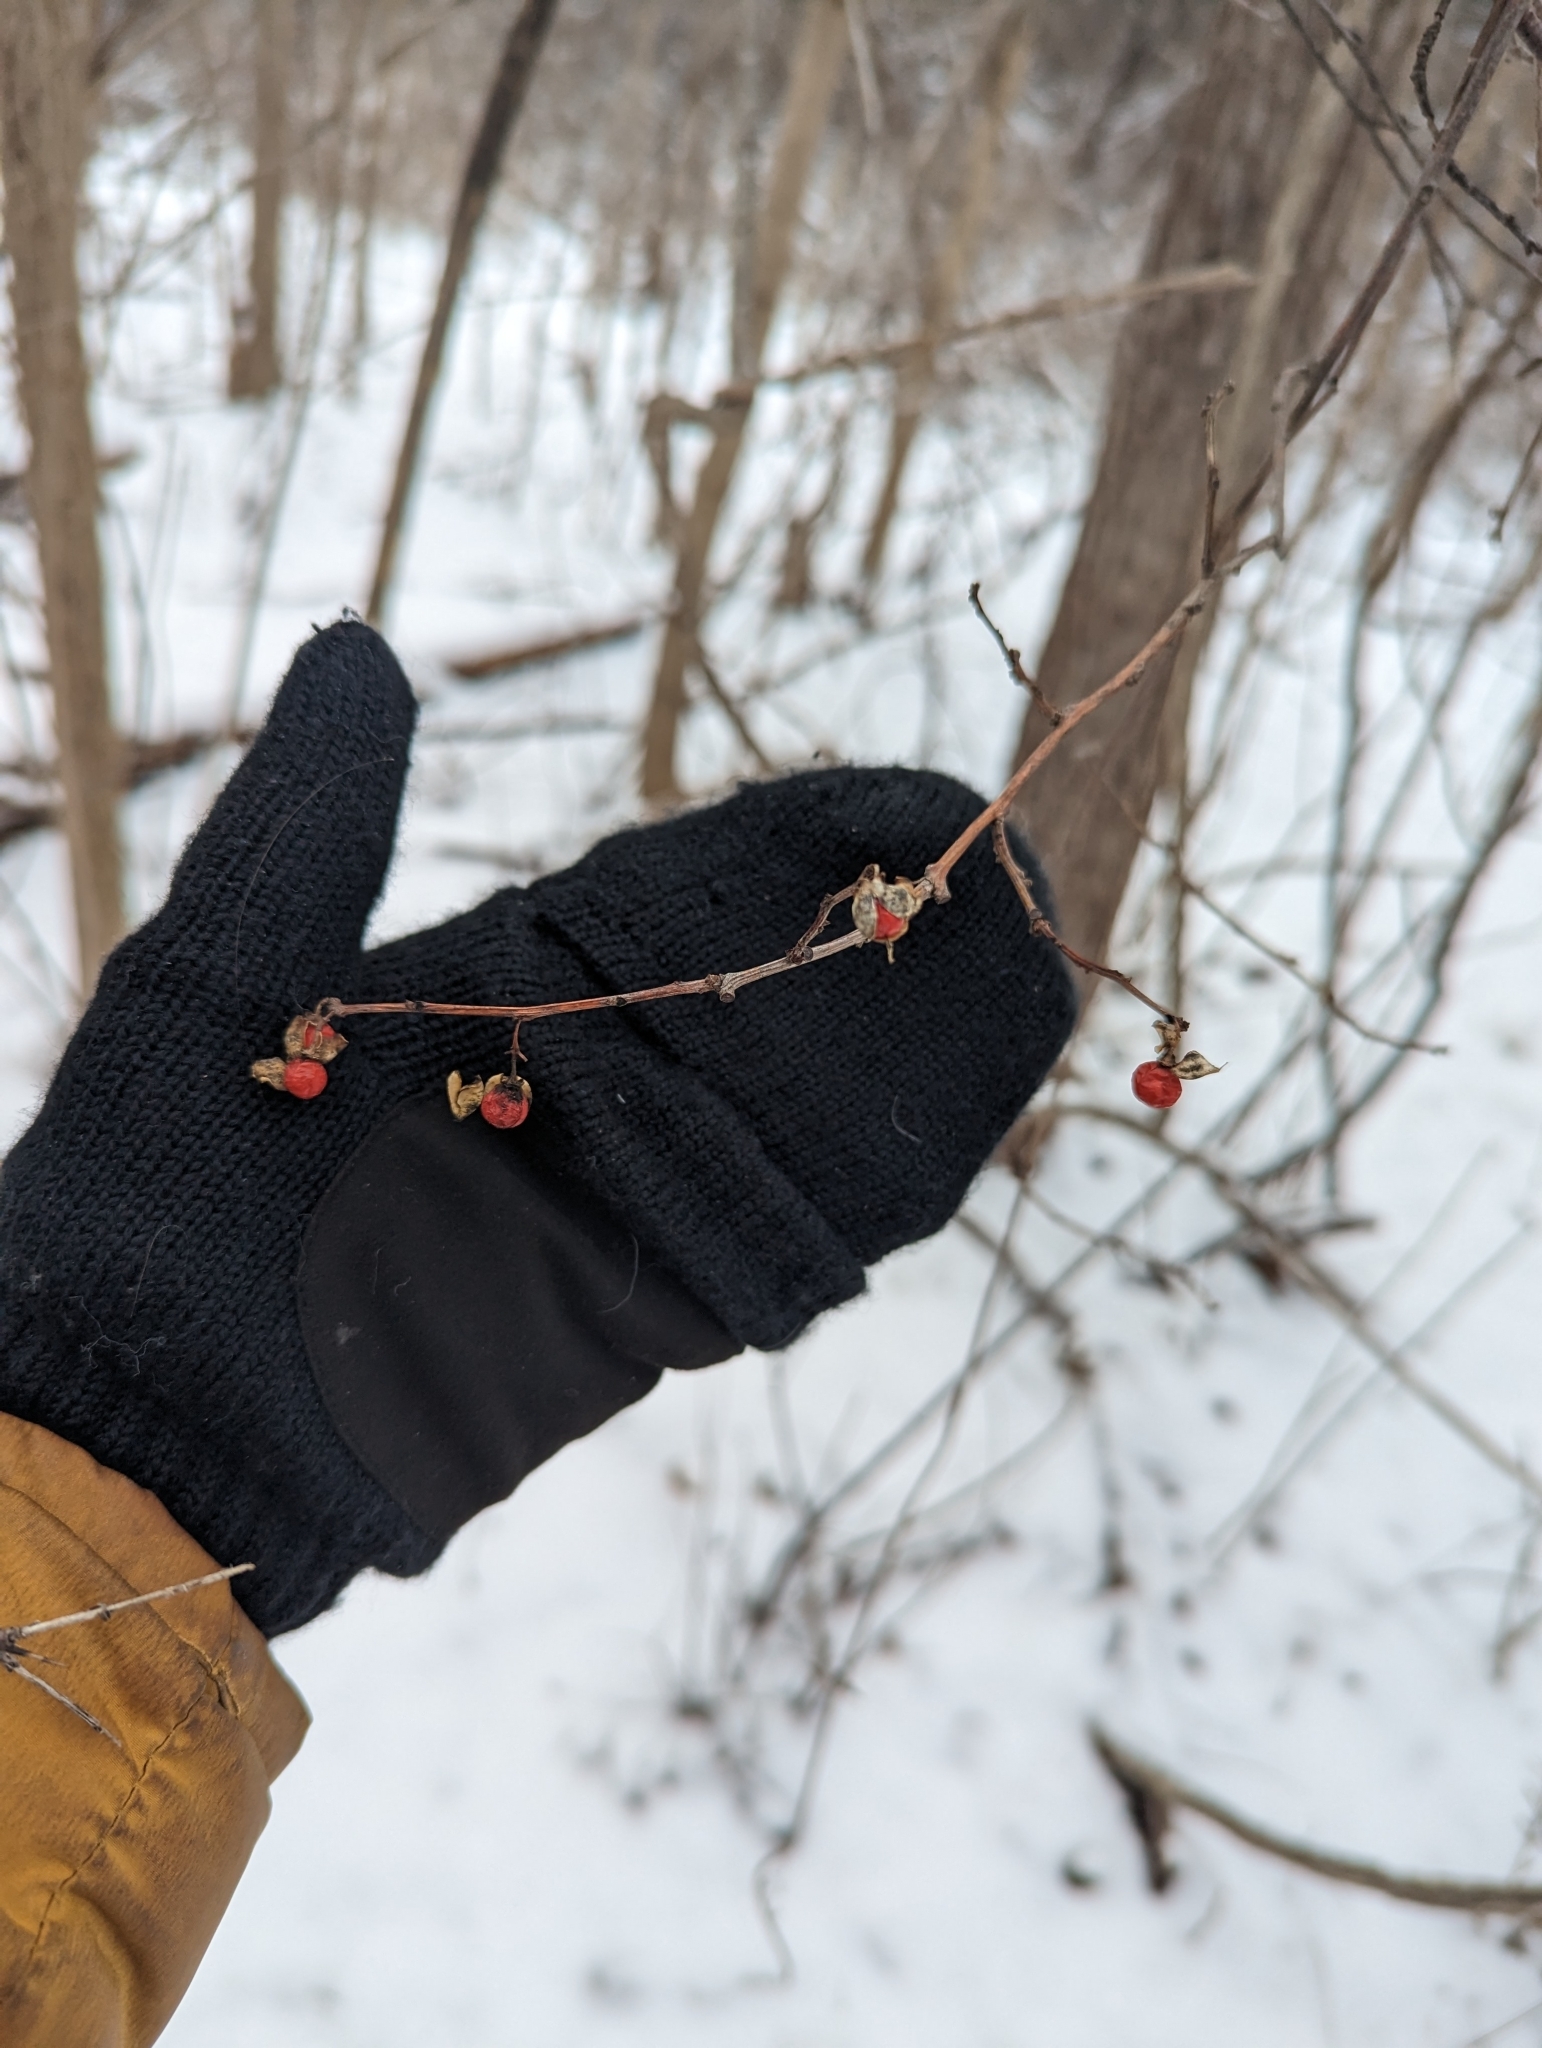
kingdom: Plantae
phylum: Tracheophyta
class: Magnoliopsida
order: Celastrales
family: Celastraceae
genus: Celastrus
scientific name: Celastrus orbiculatus
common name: Oriental bittersweet
